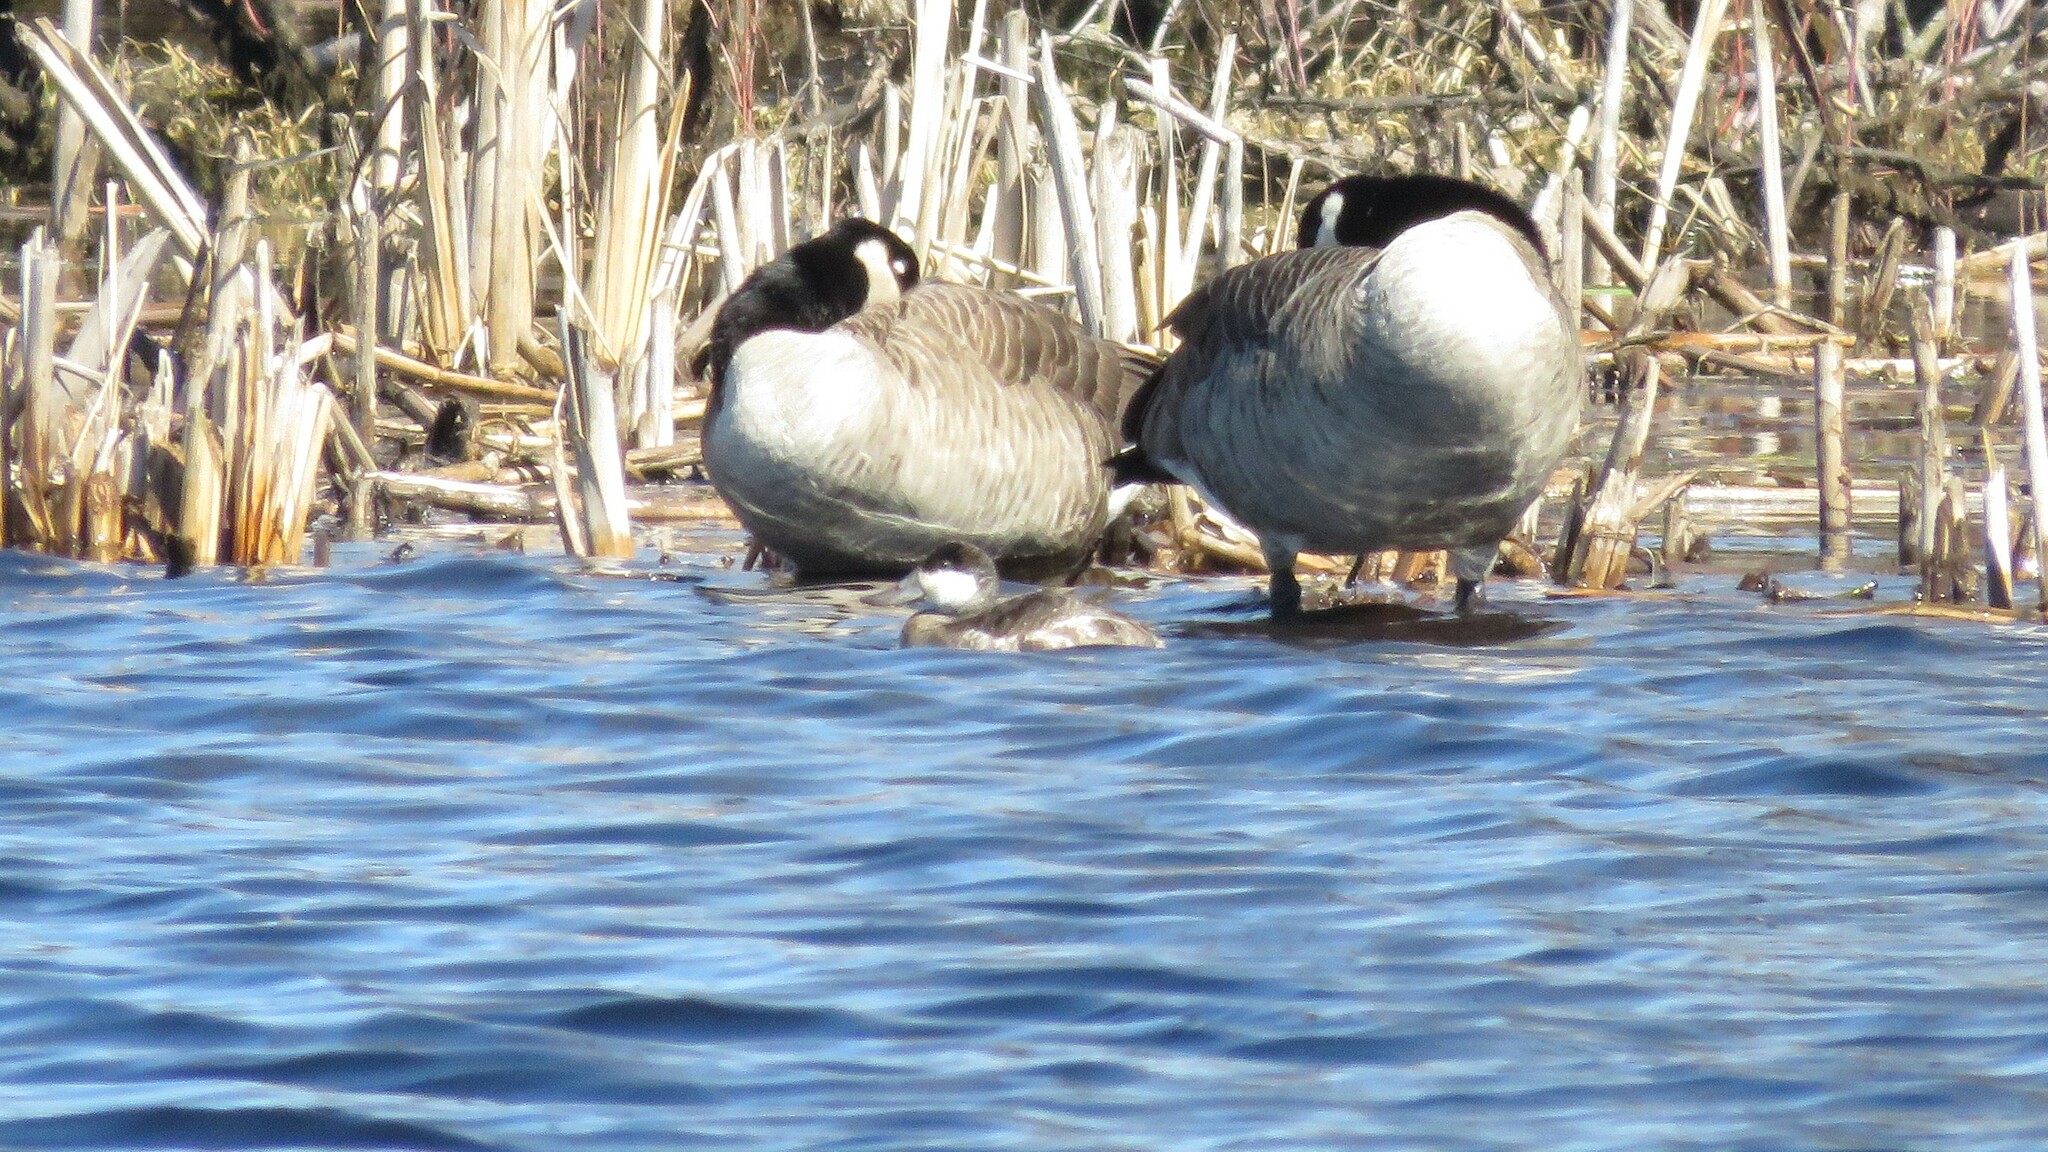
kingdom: Animalia
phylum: Chordata
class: Aves
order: Anseriformes
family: Anatidae
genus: Oxyura
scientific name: Oxyura jamaicensis
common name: Ruddy duck
